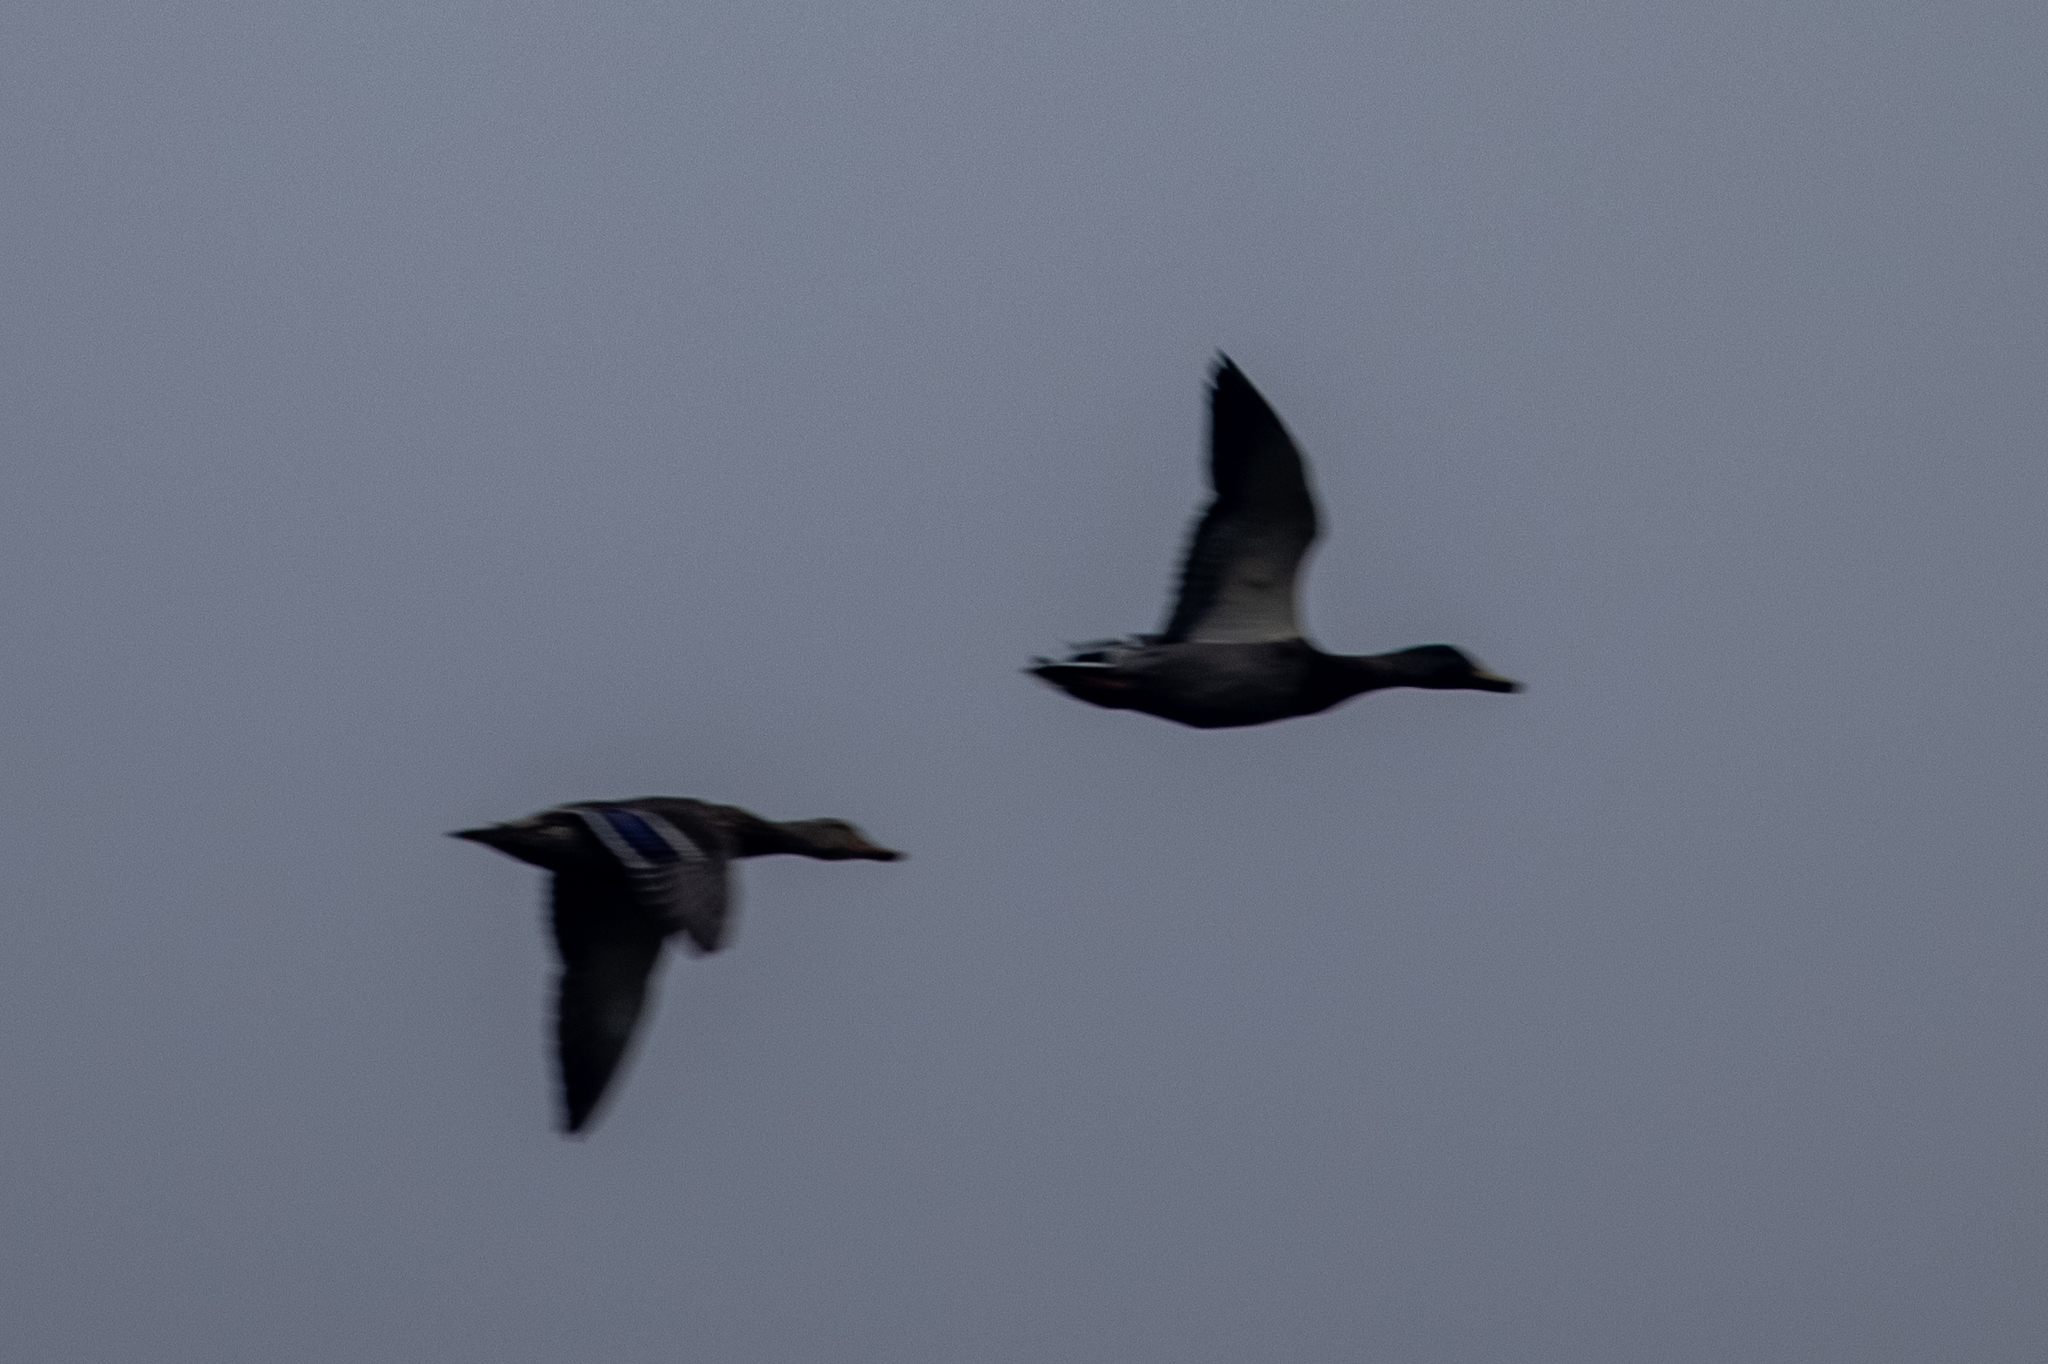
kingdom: Animalia
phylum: Chordata
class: Aves
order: Anseriformes
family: Anatidae
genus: Anas
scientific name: Anas platyrhynchos
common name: Mallard
